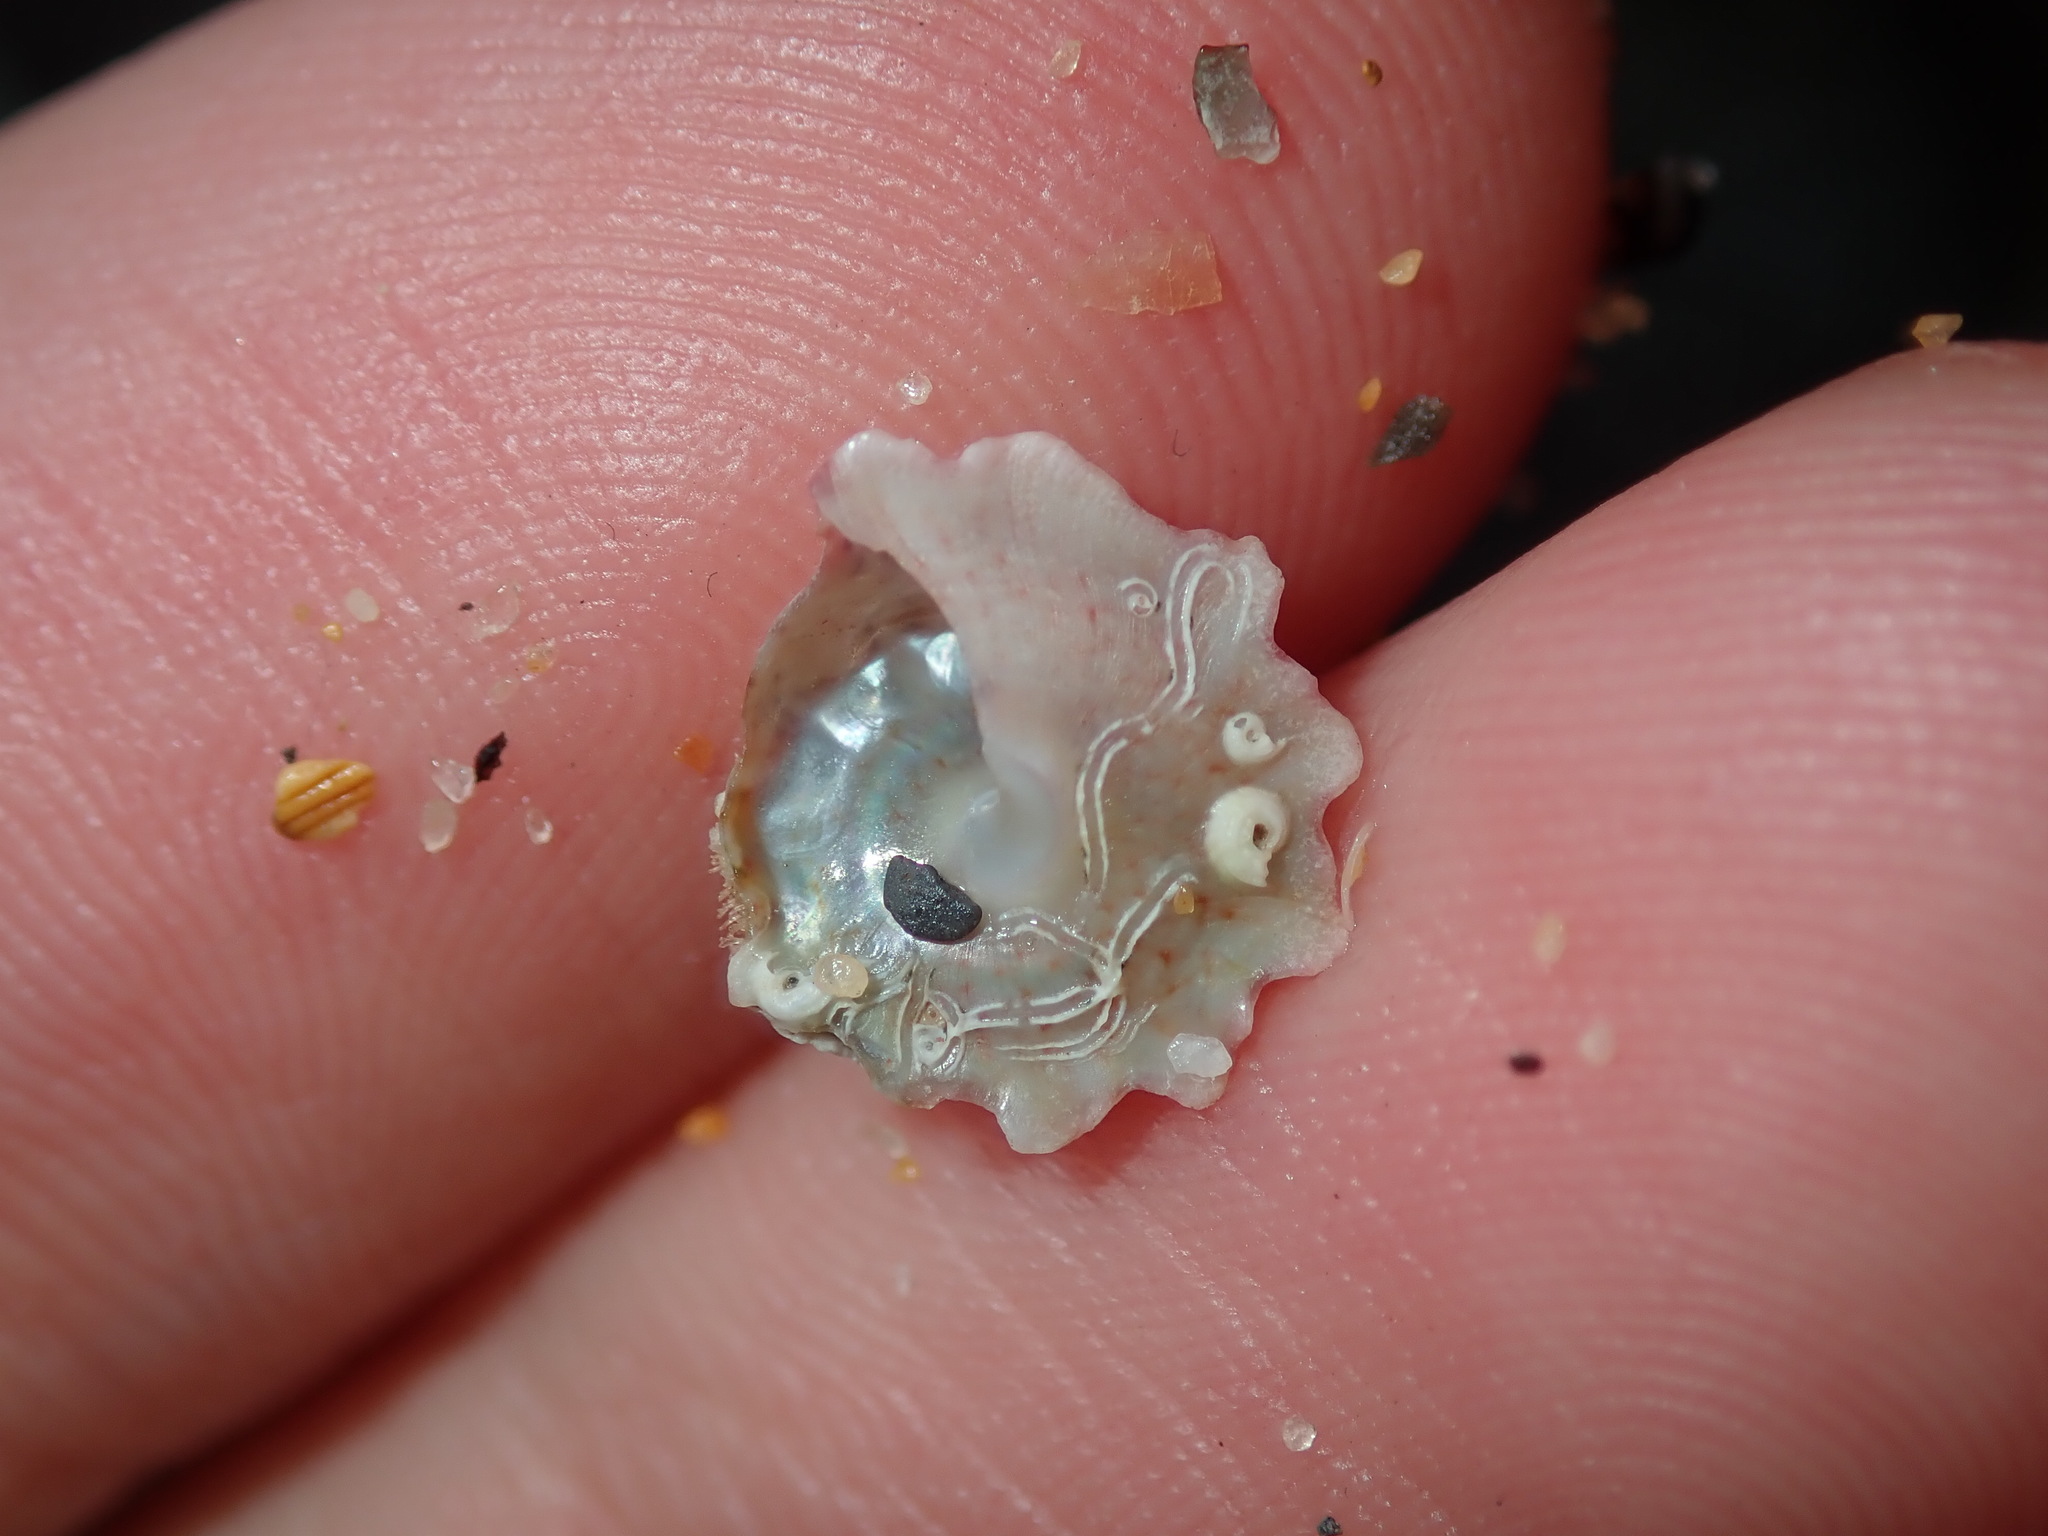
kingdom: Animalia
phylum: Mollusca
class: Gastropoda
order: Trochida
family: Turbinidae
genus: Bellastraea
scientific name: Bellastraea squamifera
